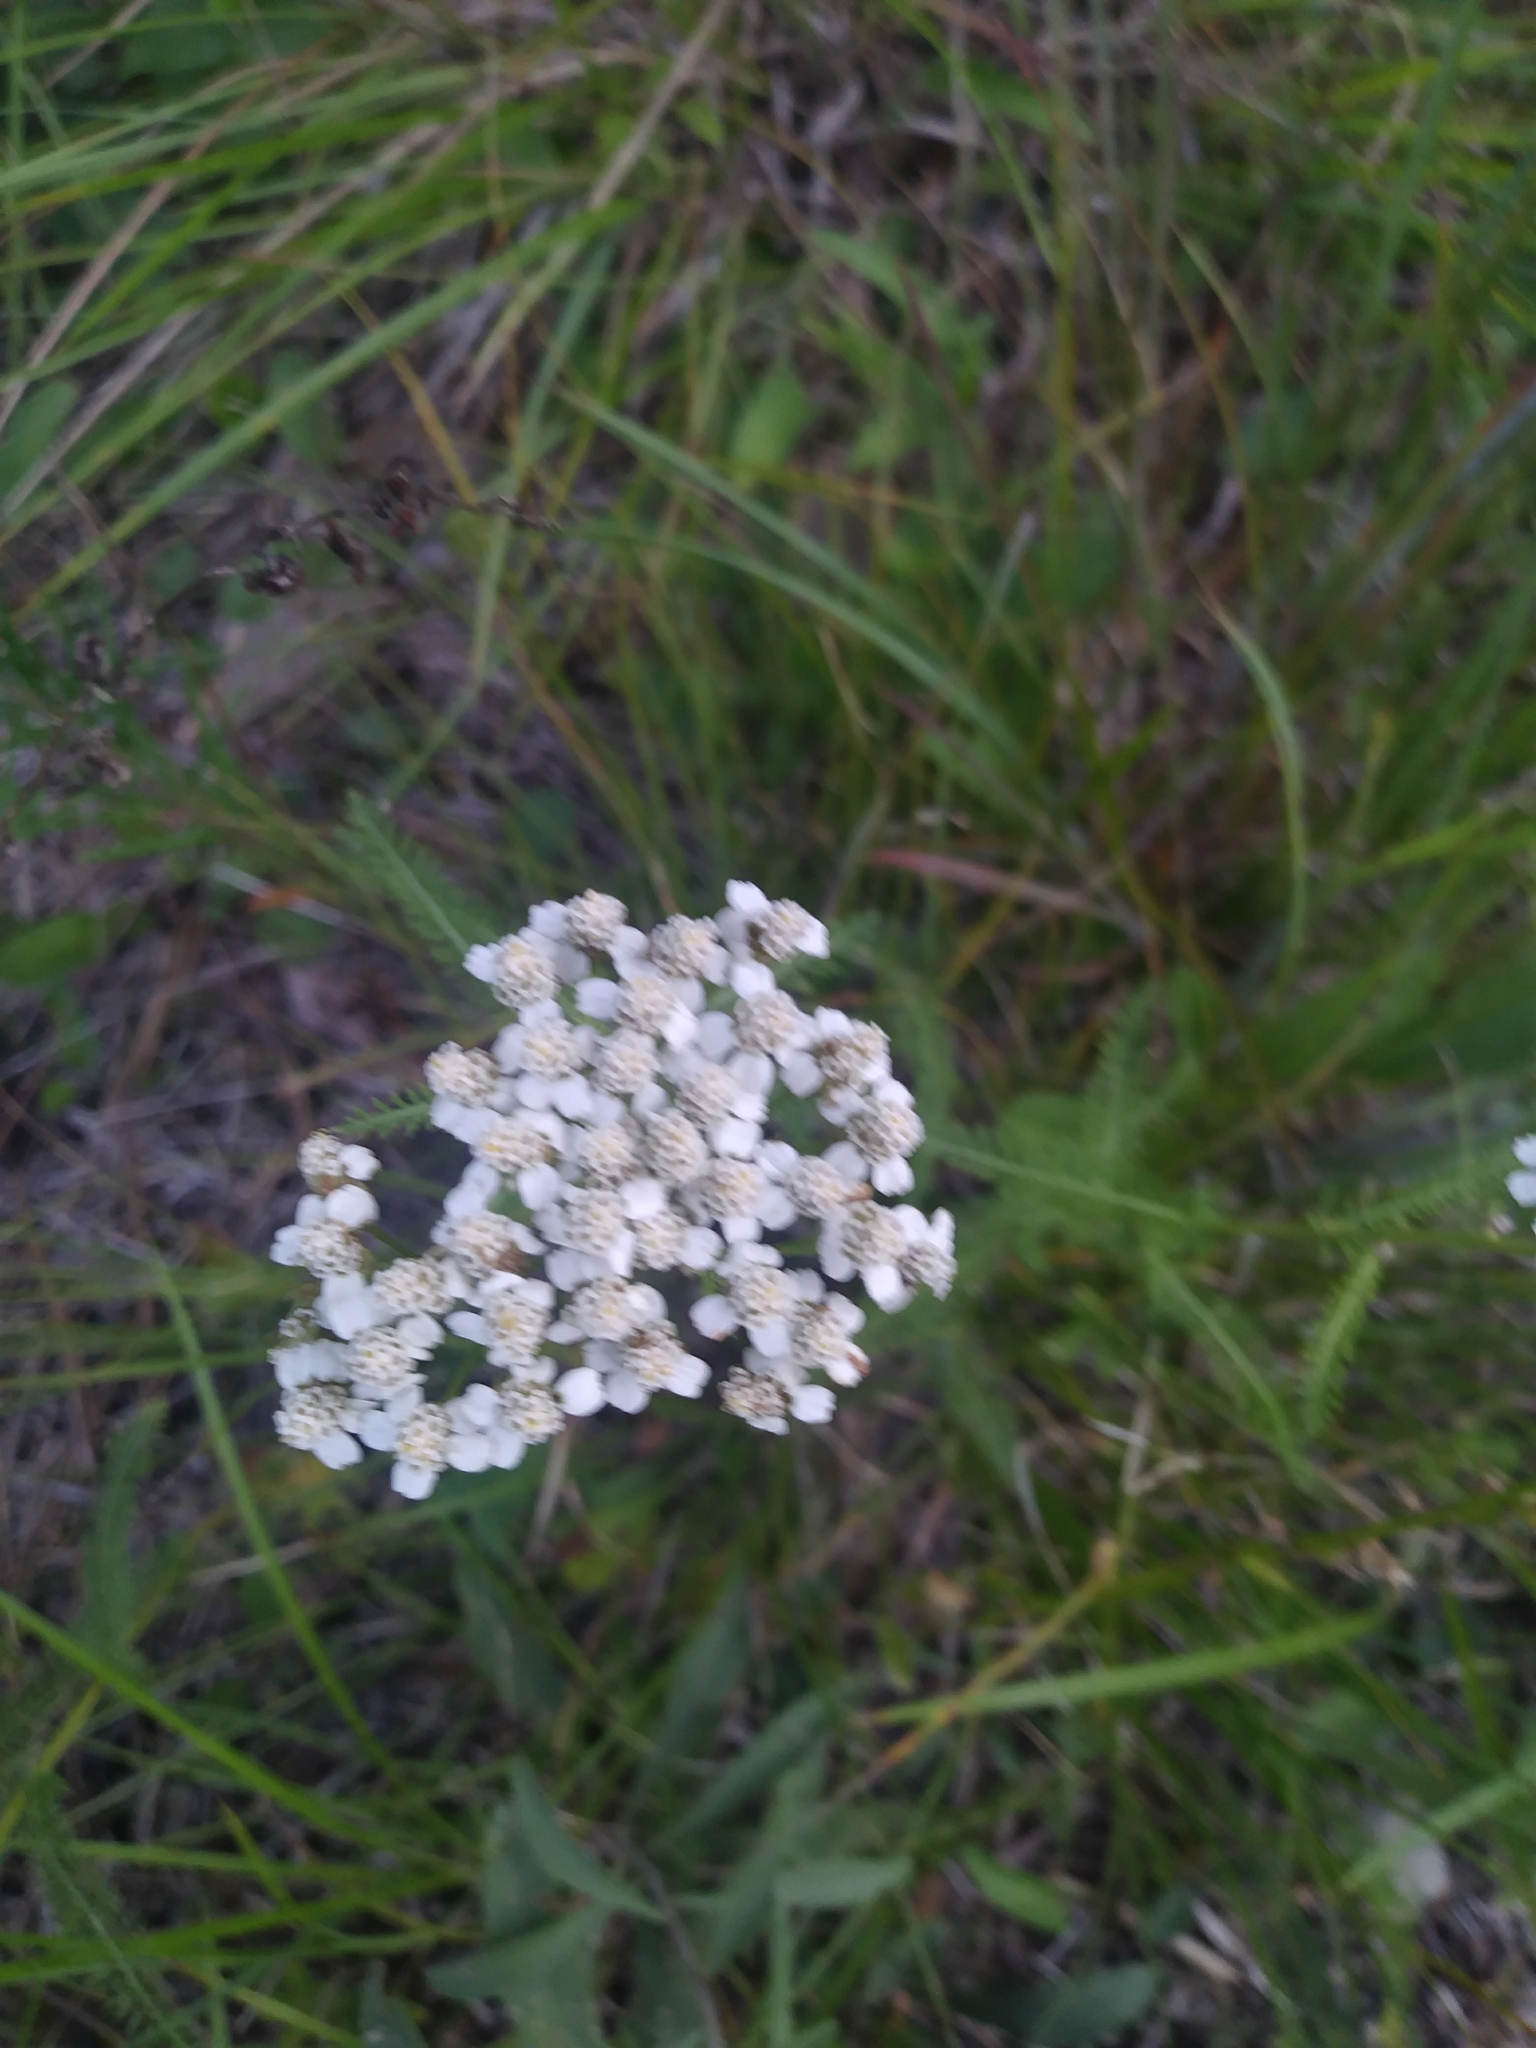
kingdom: Plantae
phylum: Tracheophyta
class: Magnoliopsida
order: Asterales
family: Asteraceae
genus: Achillea
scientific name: Achillea millefolium
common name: Yarrow
